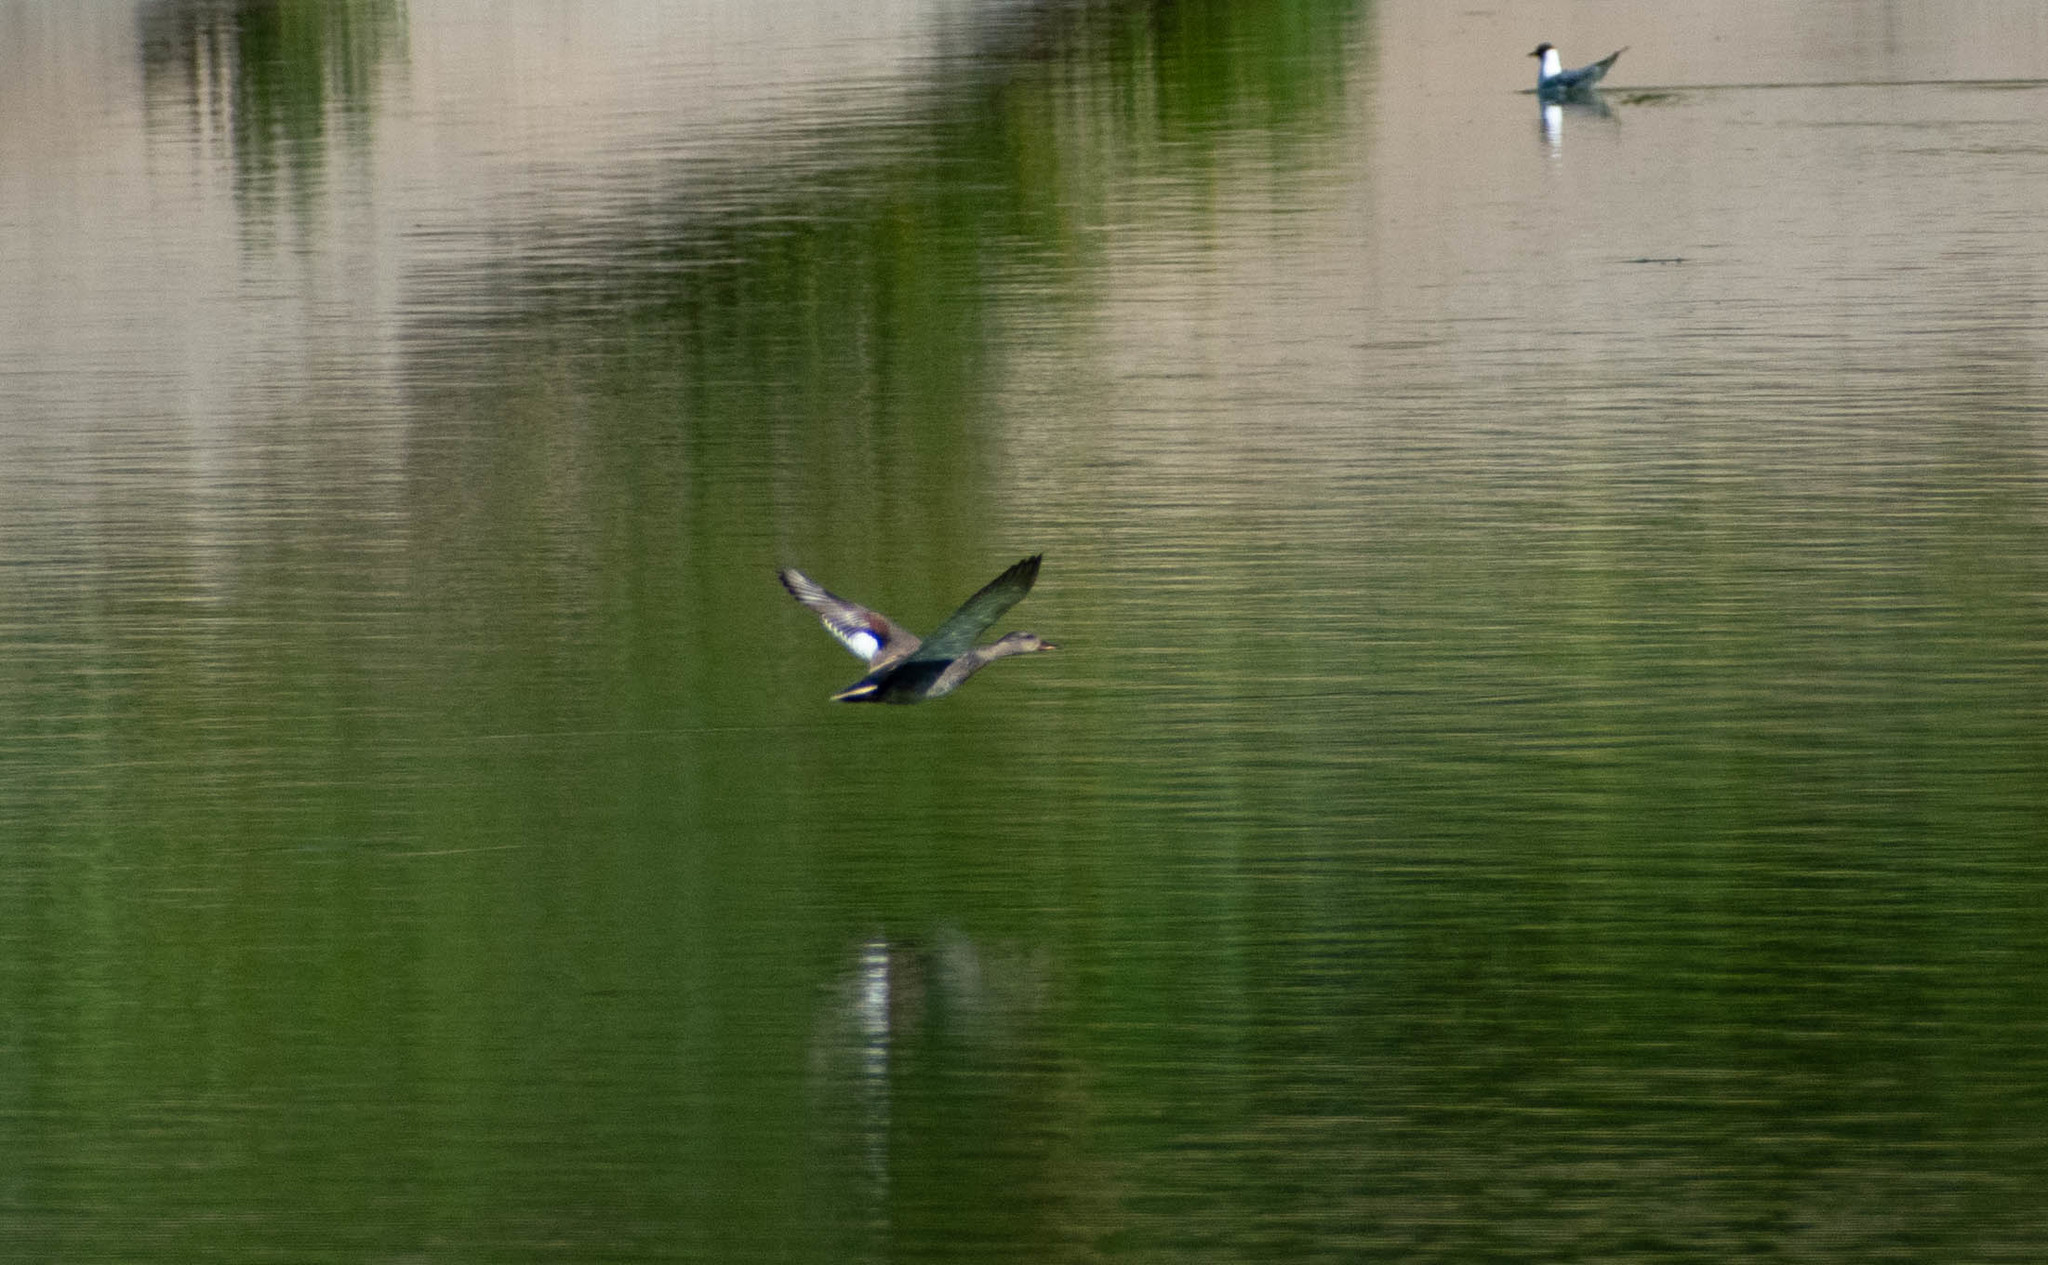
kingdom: Animalia
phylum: Chordata
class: Aves
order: Anseriformes
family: Anatidae
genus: Mareca
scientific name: Mareca strepera
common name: Gadwall
